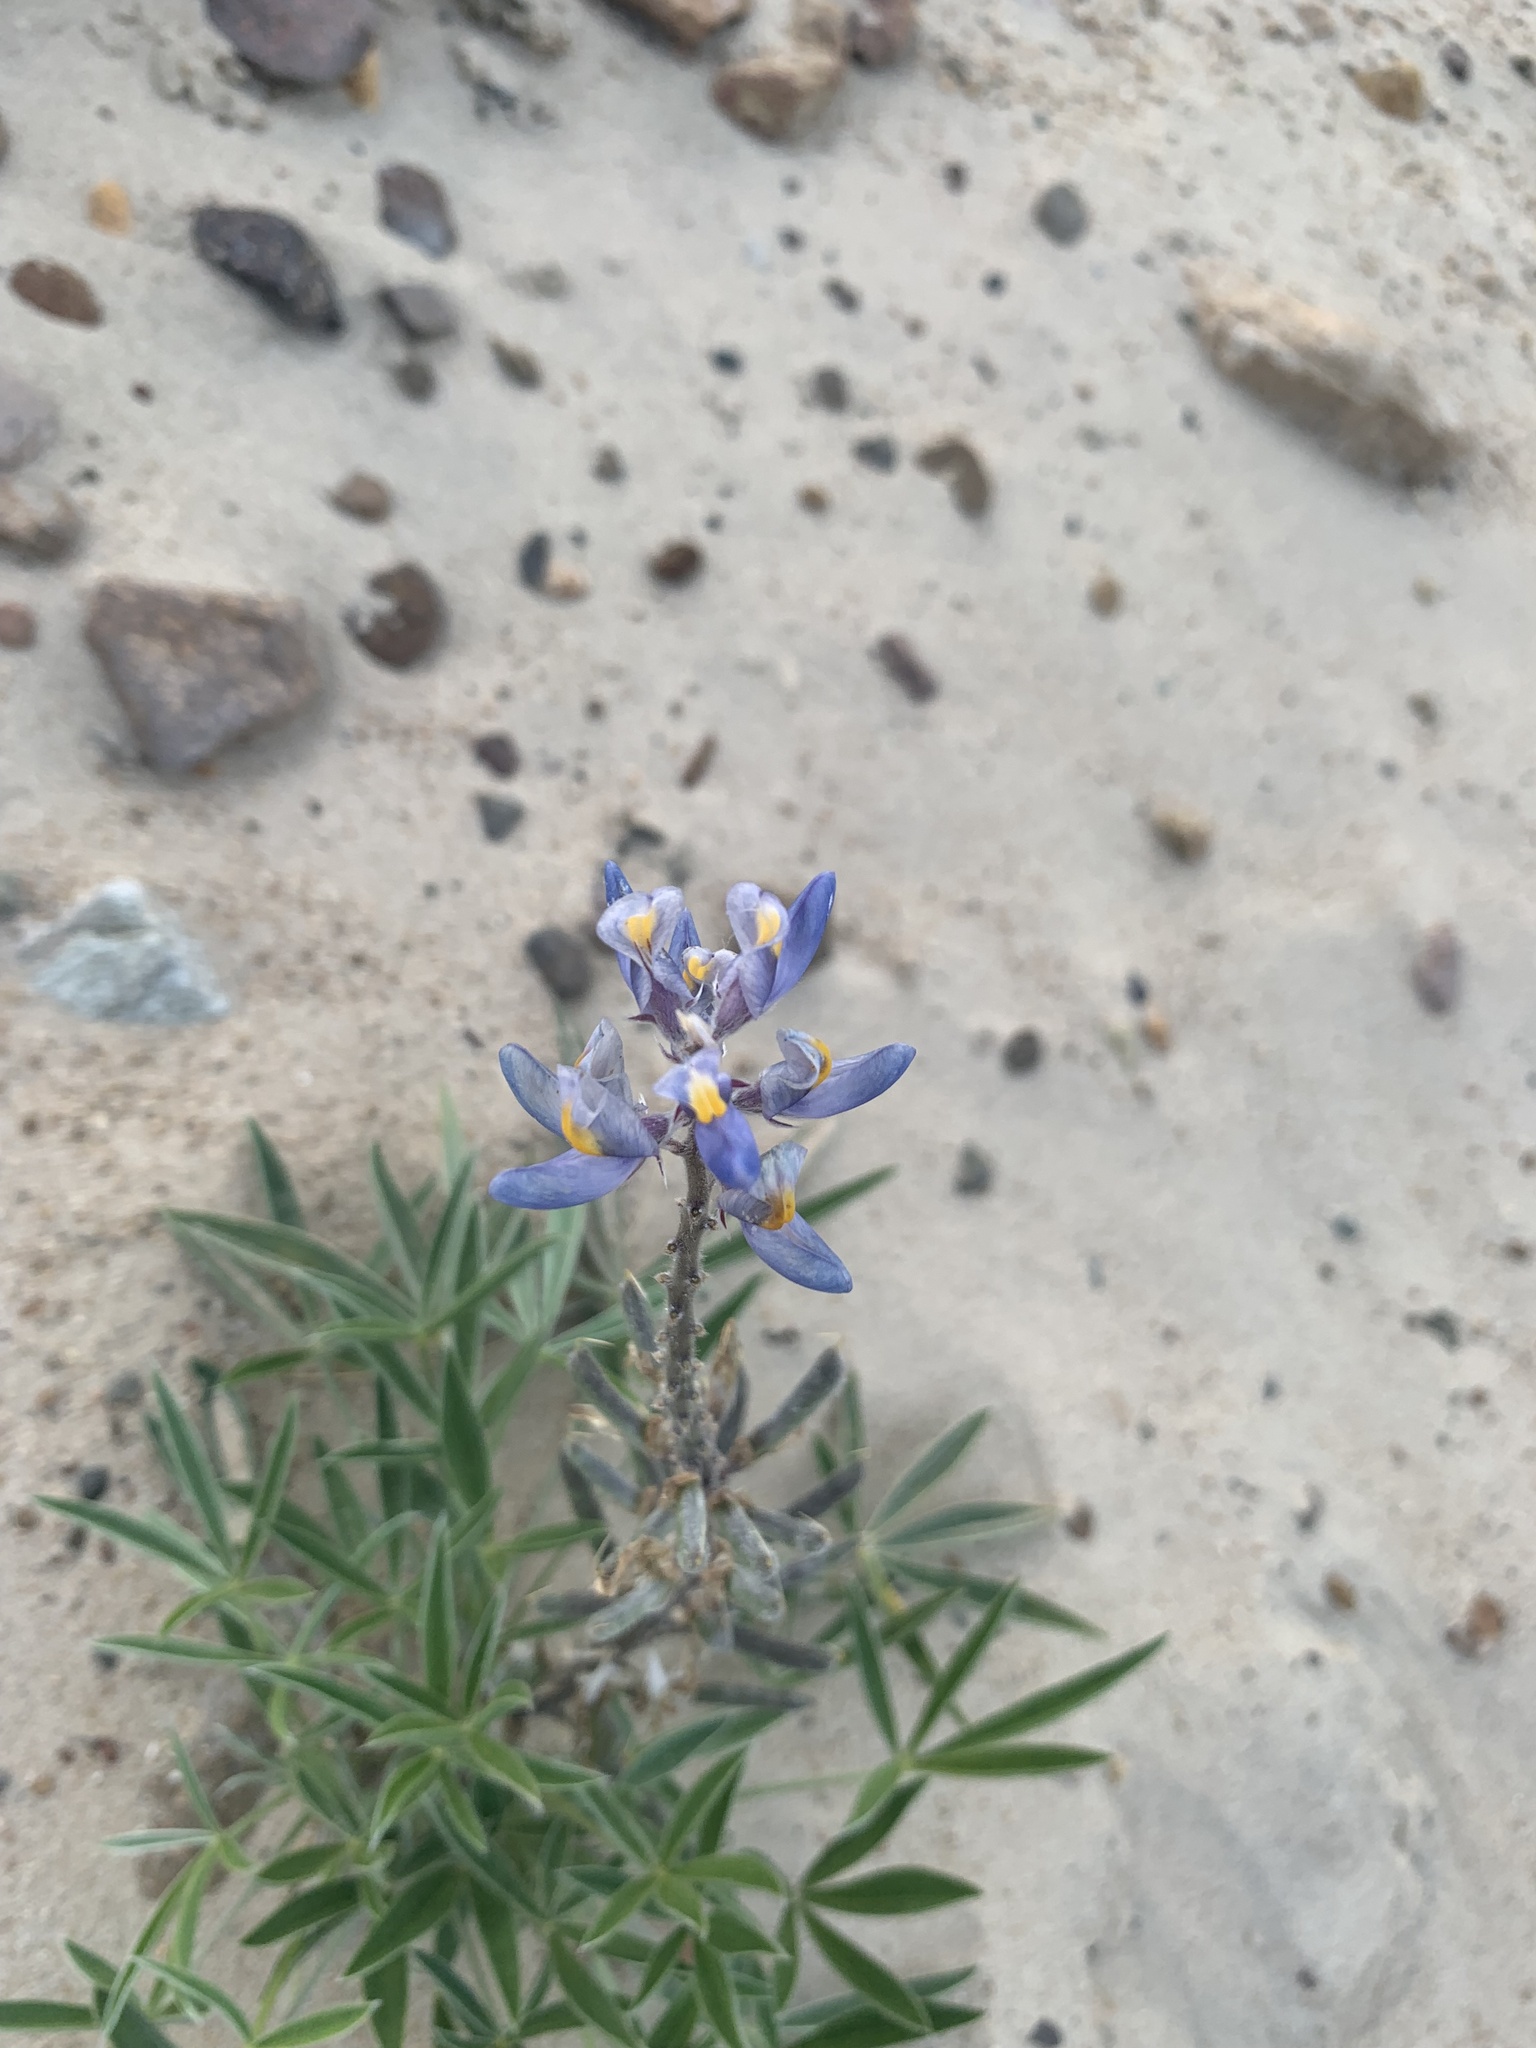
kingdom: Plantae
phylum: Tracheophyta
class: Magnoliopsida
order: Fabales
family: Fabaceae
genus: Lupinus
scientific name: Lupinus multiflorus
